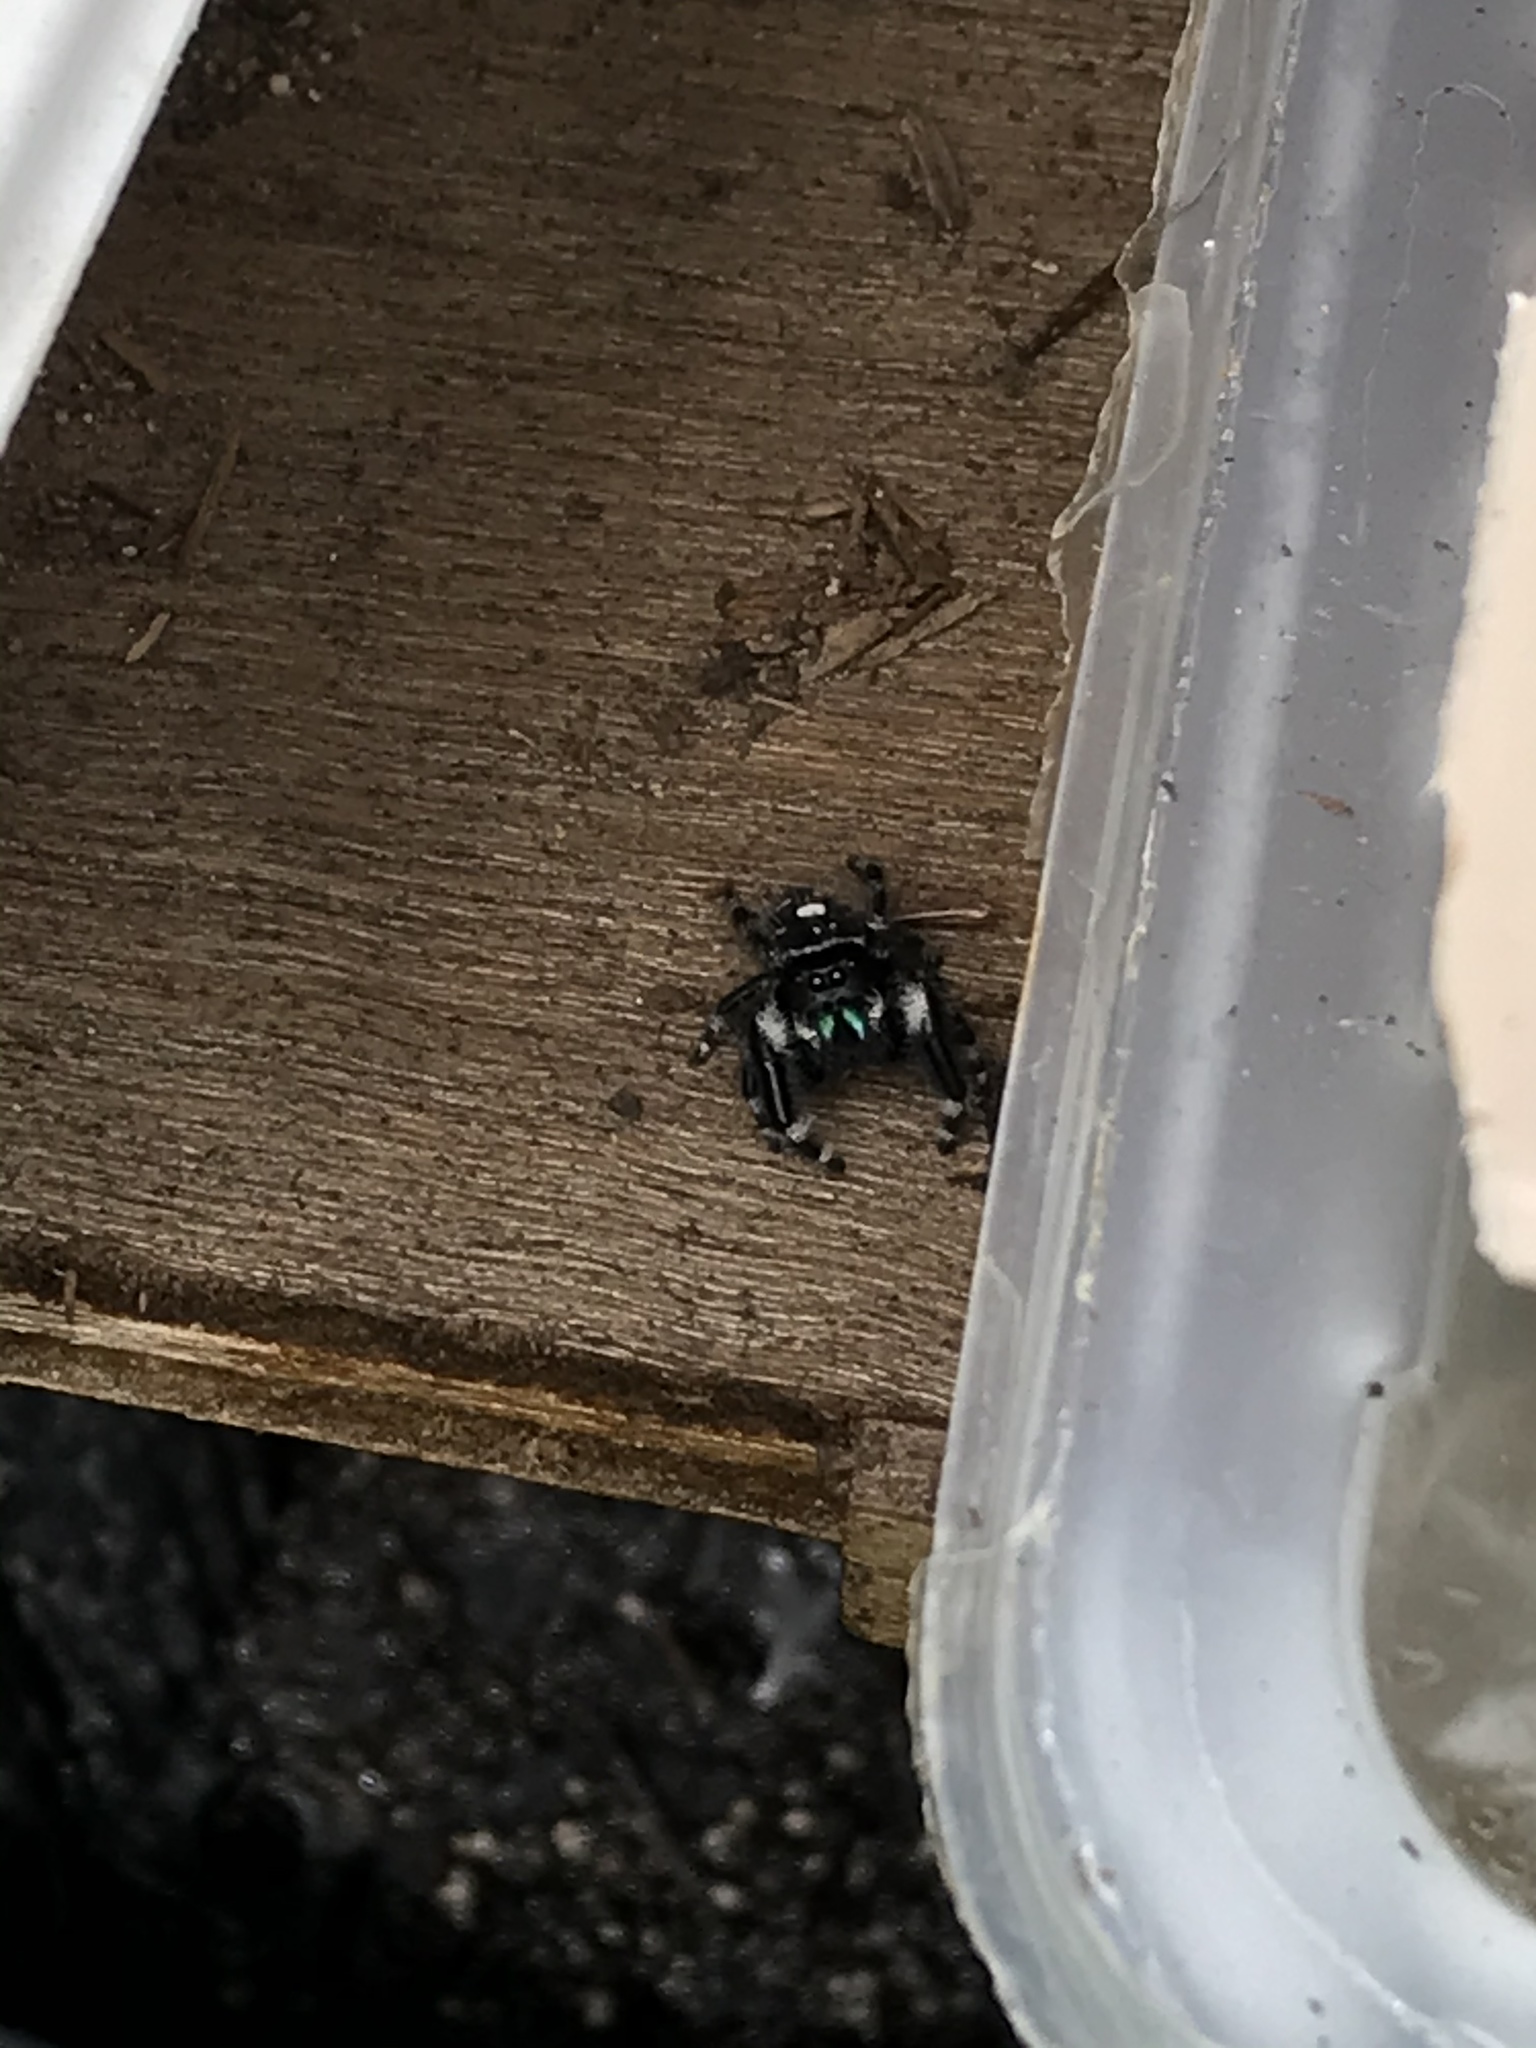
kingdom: Animalia
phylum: Arthropoda
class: Arachnida
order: Araneae
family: Salticidae
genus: Phidippus
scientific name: Phidippus audax
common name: Bold jumper
